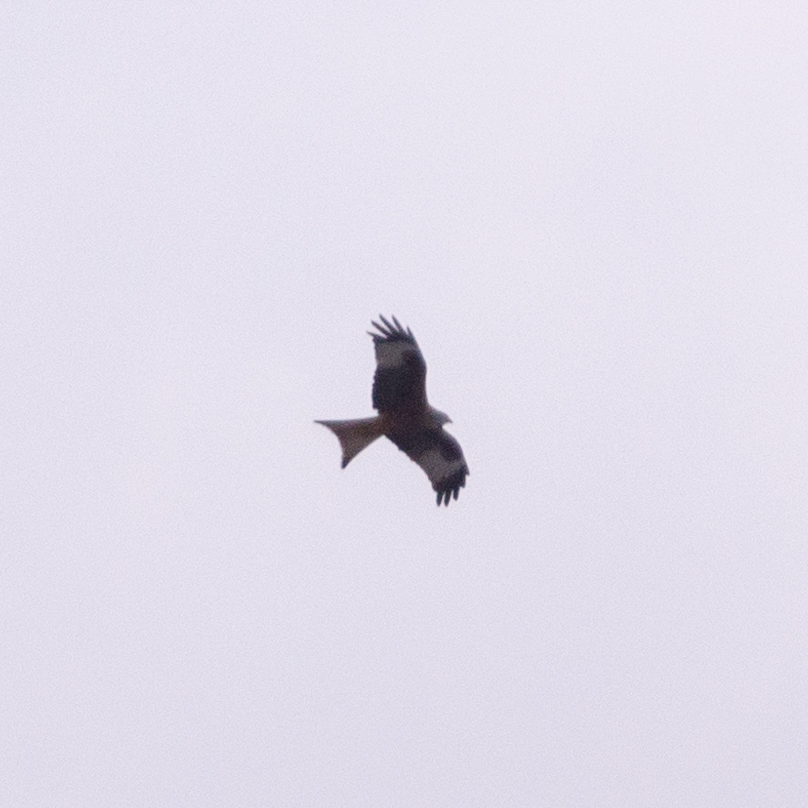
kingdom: Animalia
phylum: Chordata
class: Aves
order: Accipitriformes
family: Accipitridae
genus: Milvus
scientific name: Milvus milvus
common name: Red kite
